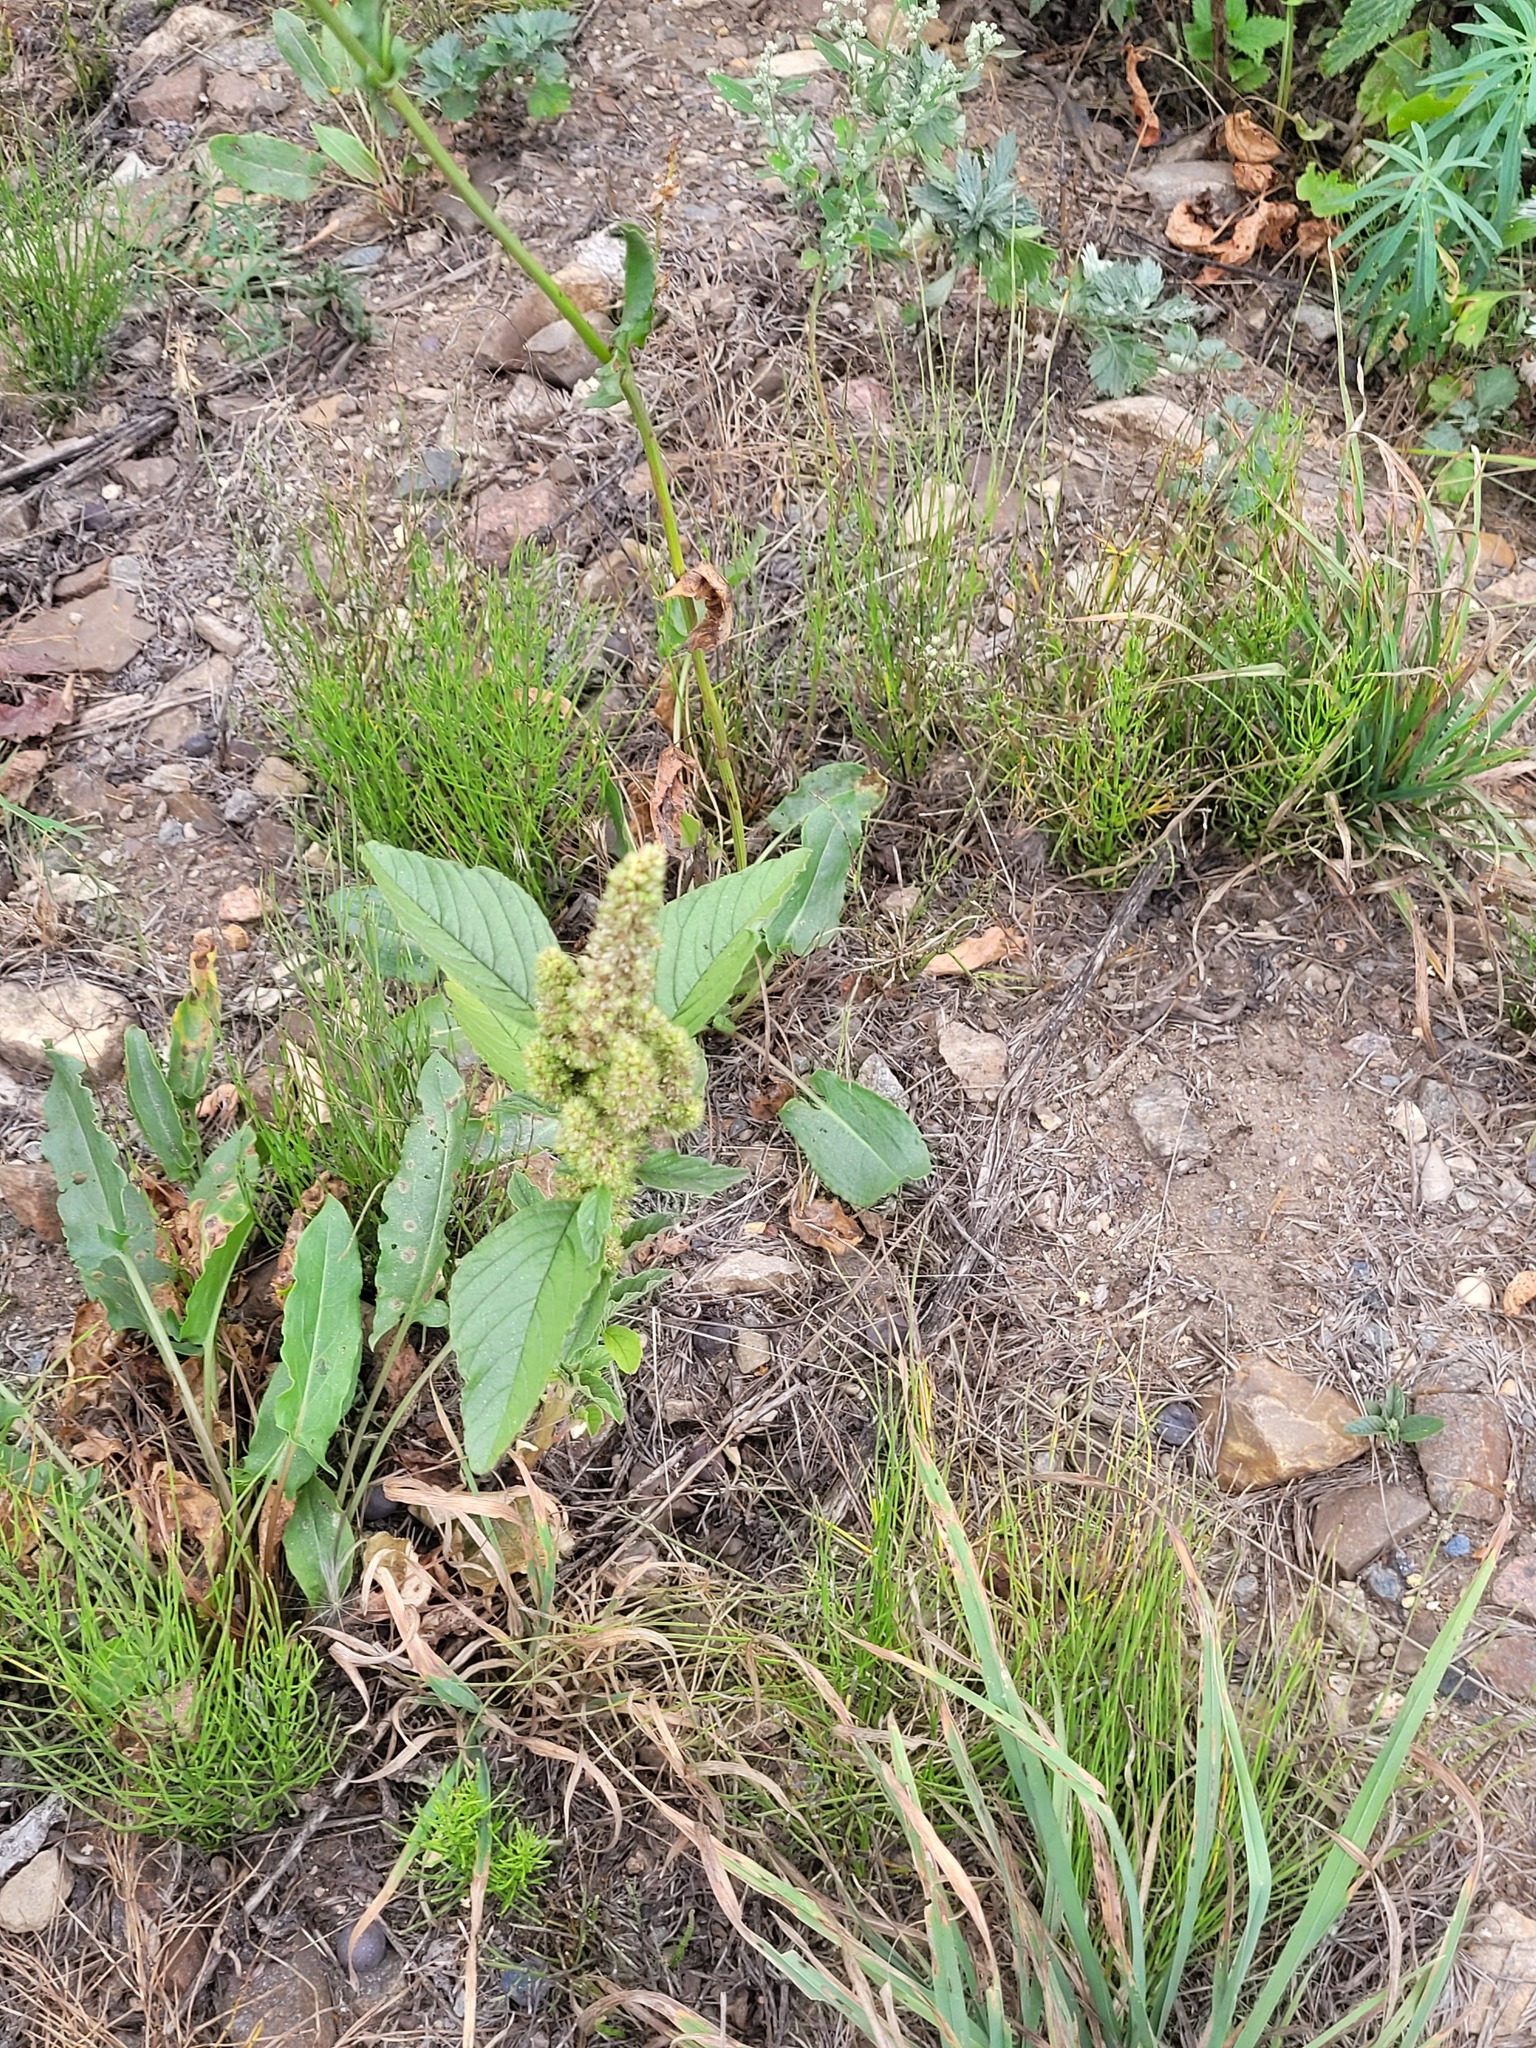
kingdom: Plantae
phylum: Tracheophyta
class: Magnoliopsida
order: Caryophyllales
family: Amaranthaceae
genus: Amaranthus
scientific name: Amaranthus retroflexus
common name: Redroot amaranth
